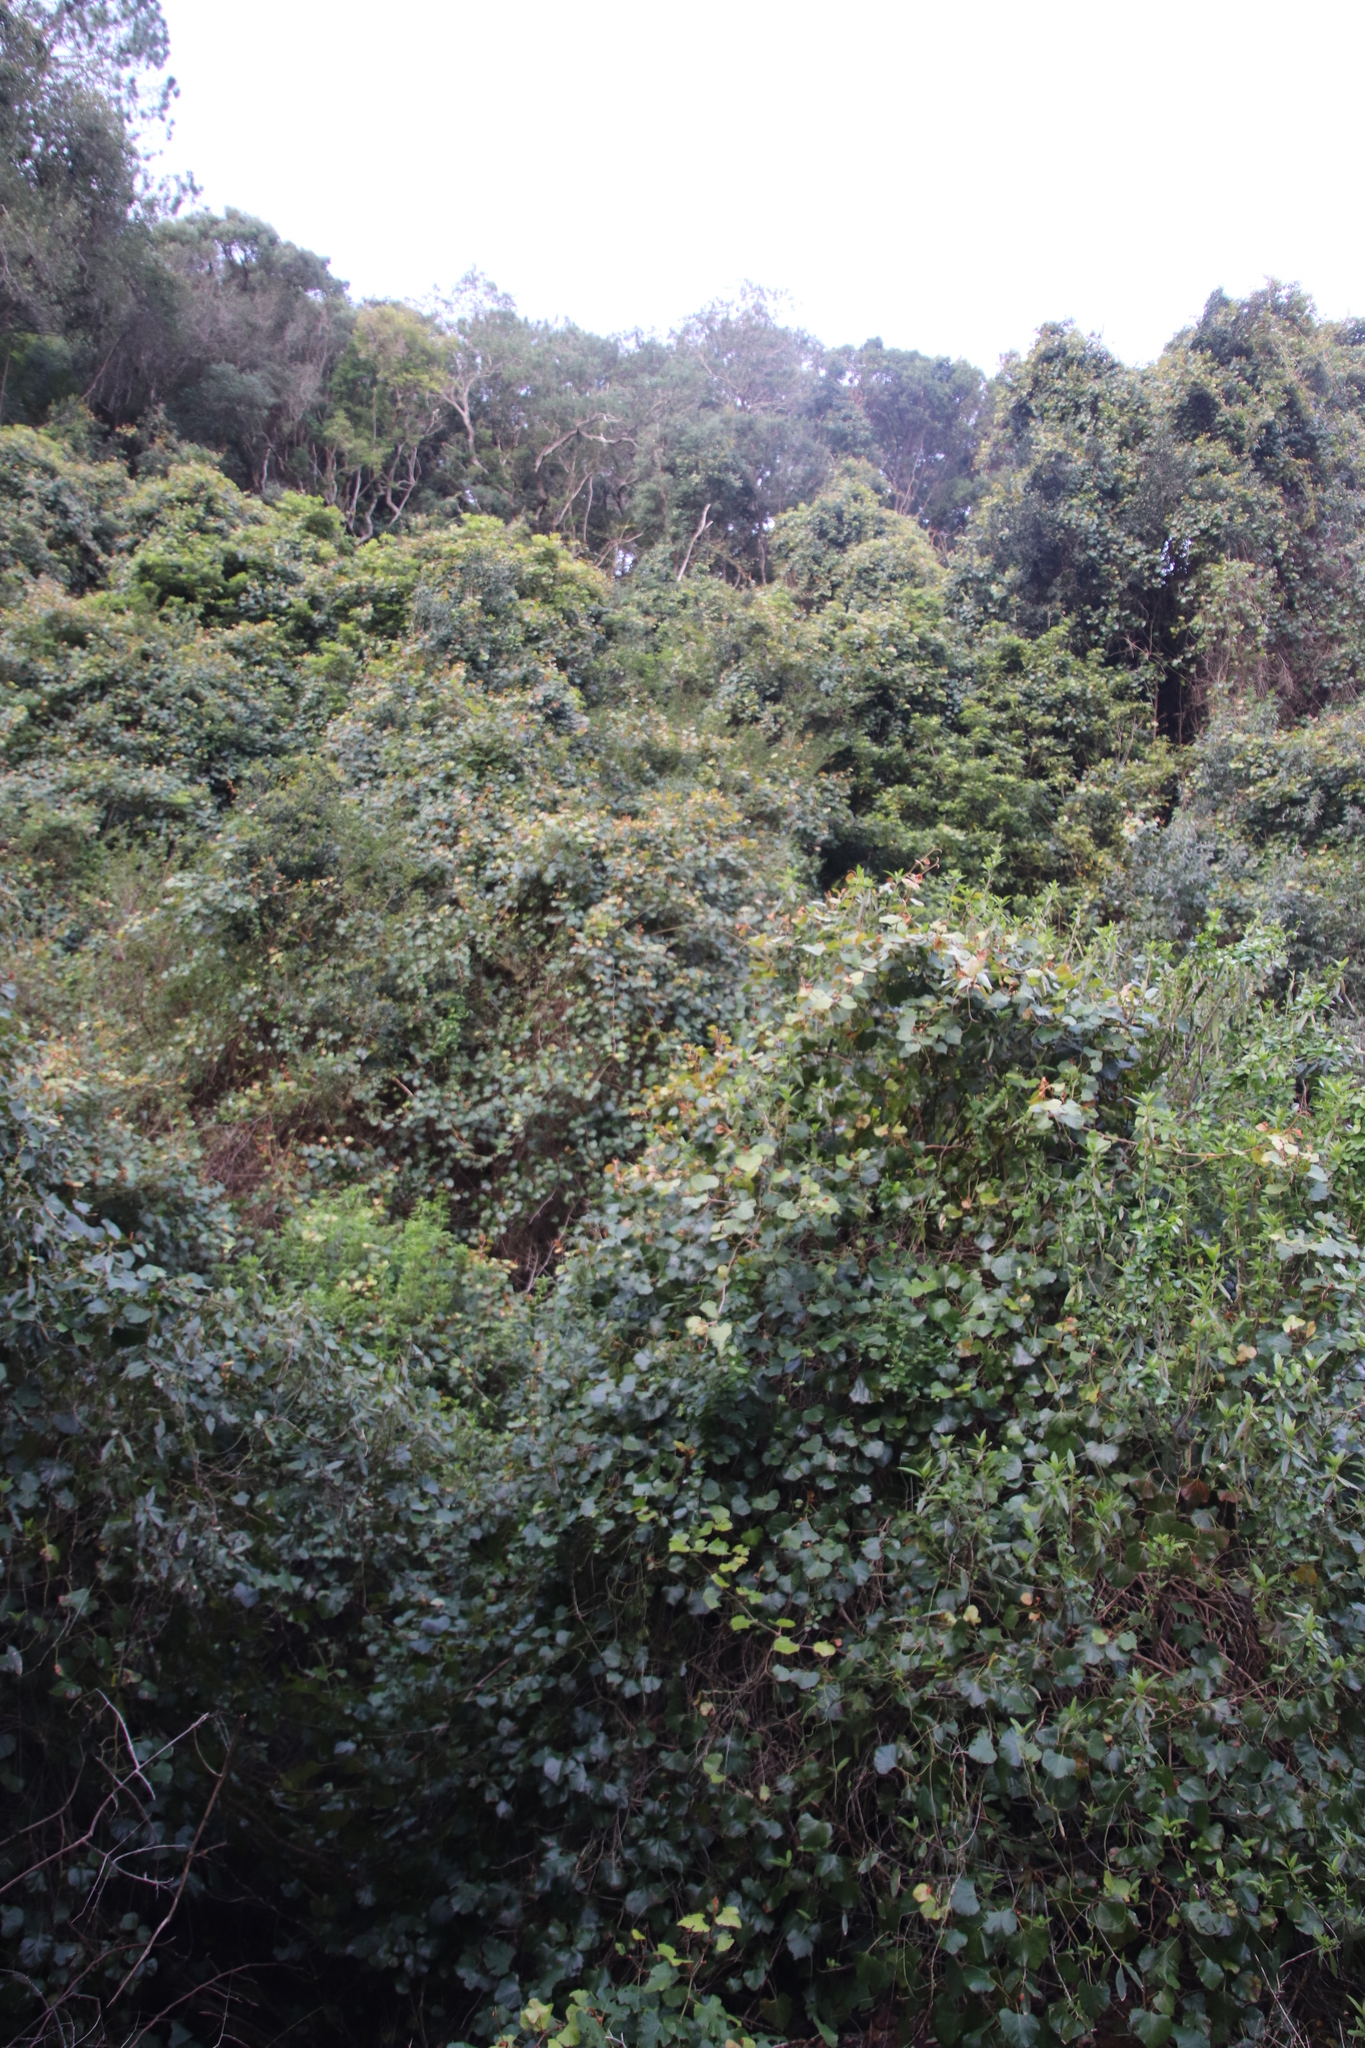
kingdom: Plantae
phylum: Tracheophyta
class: Magnoliopsida
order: Vitales
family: Vitaceae
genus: Rhoicissus
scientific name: Rhoicissus tomentosa
